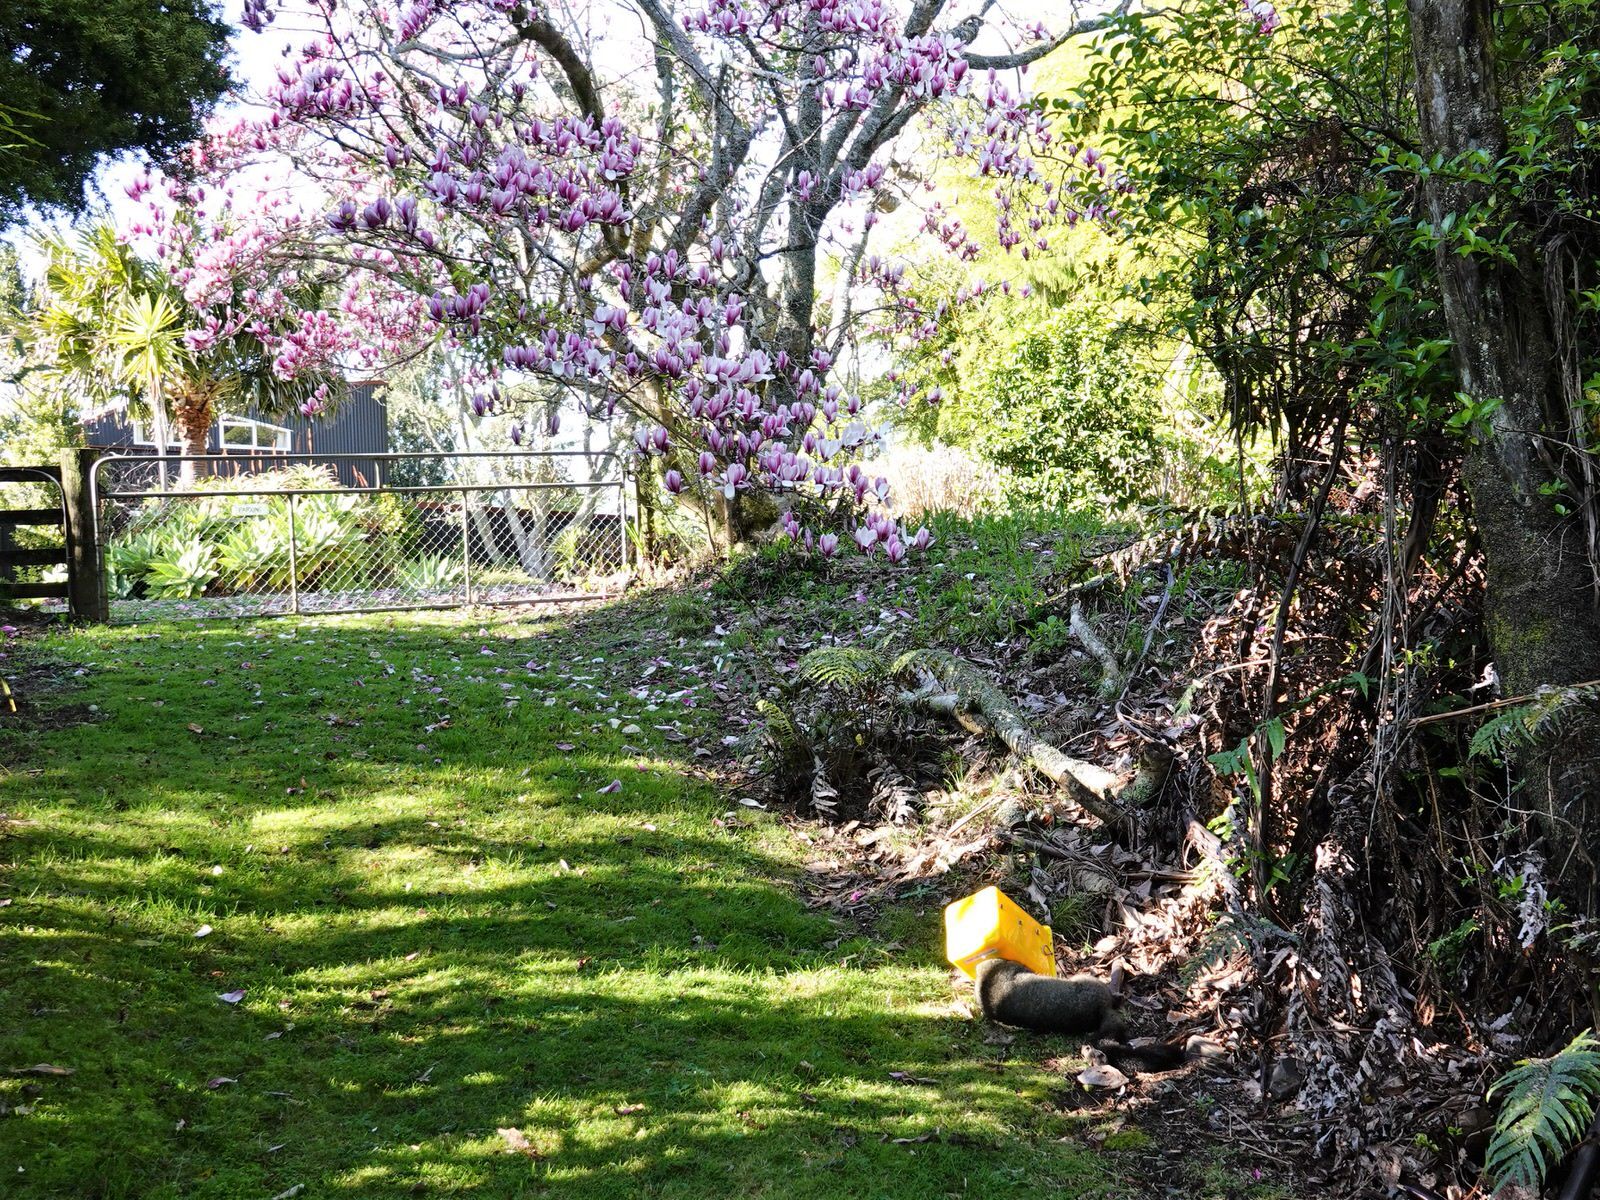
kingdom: Animalia
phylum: Chordata
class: Mammalia
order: Diprotodontia
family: Phalangeridae
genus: Trichosurus
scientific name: Trichosurus vulpecula
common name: Common brushtail
